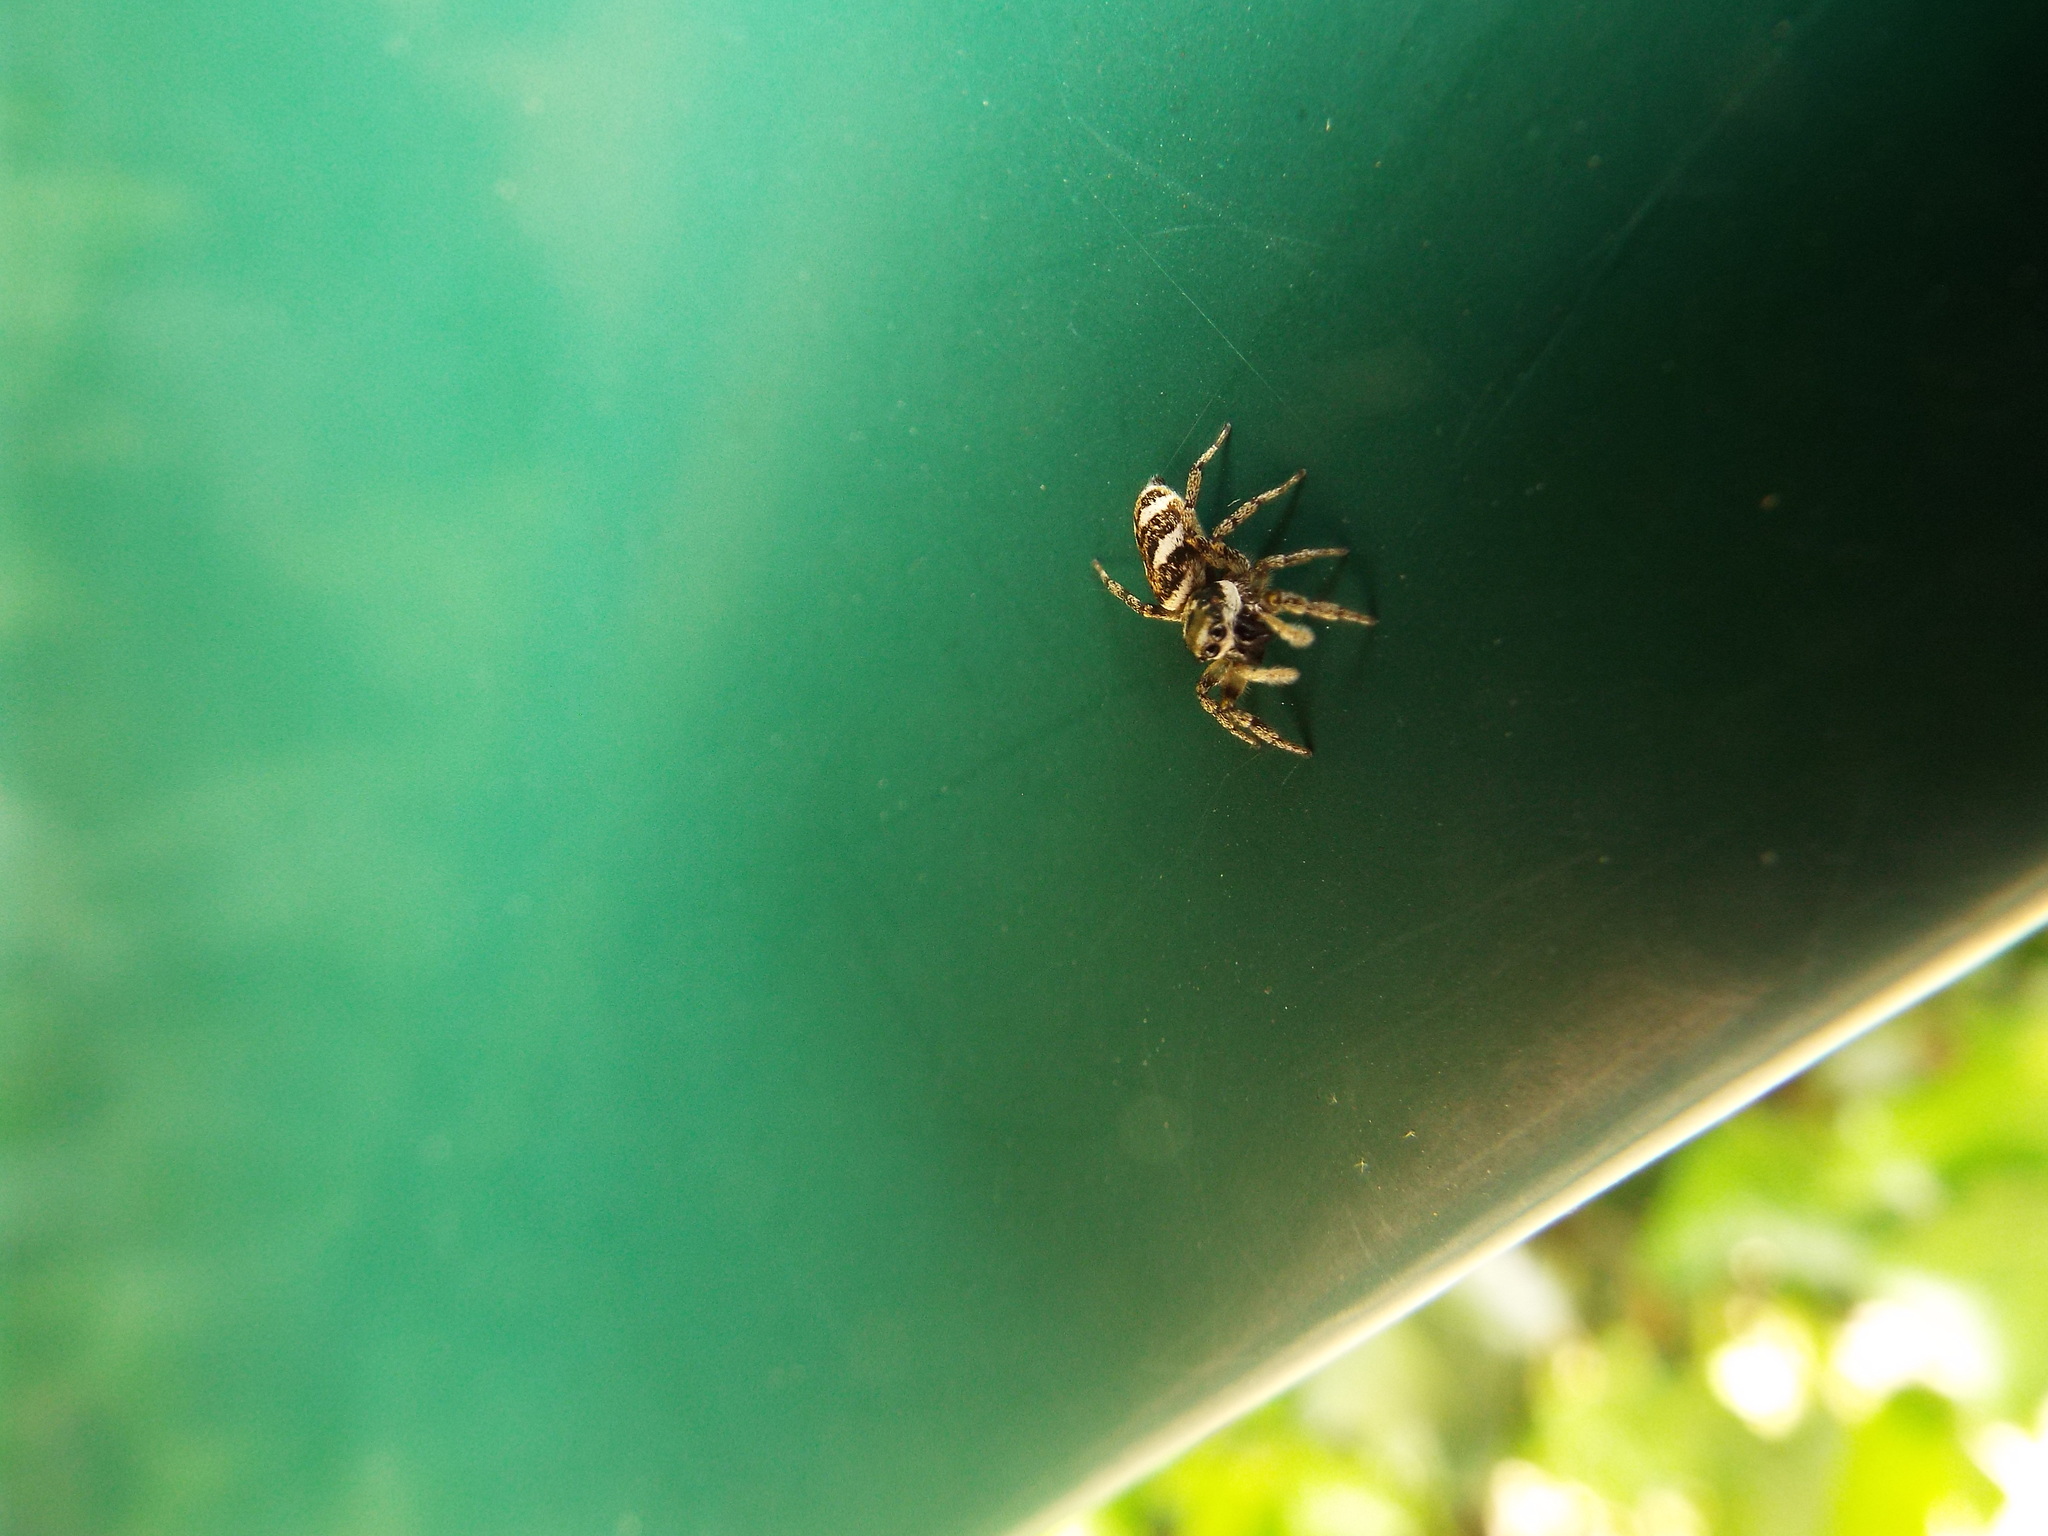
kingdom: Animalia
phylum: Arthropoda
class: Arachnida
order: Araneae
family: Salticidae
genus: Salticus
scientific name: Salticus scenicus
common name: Zebra jumper
